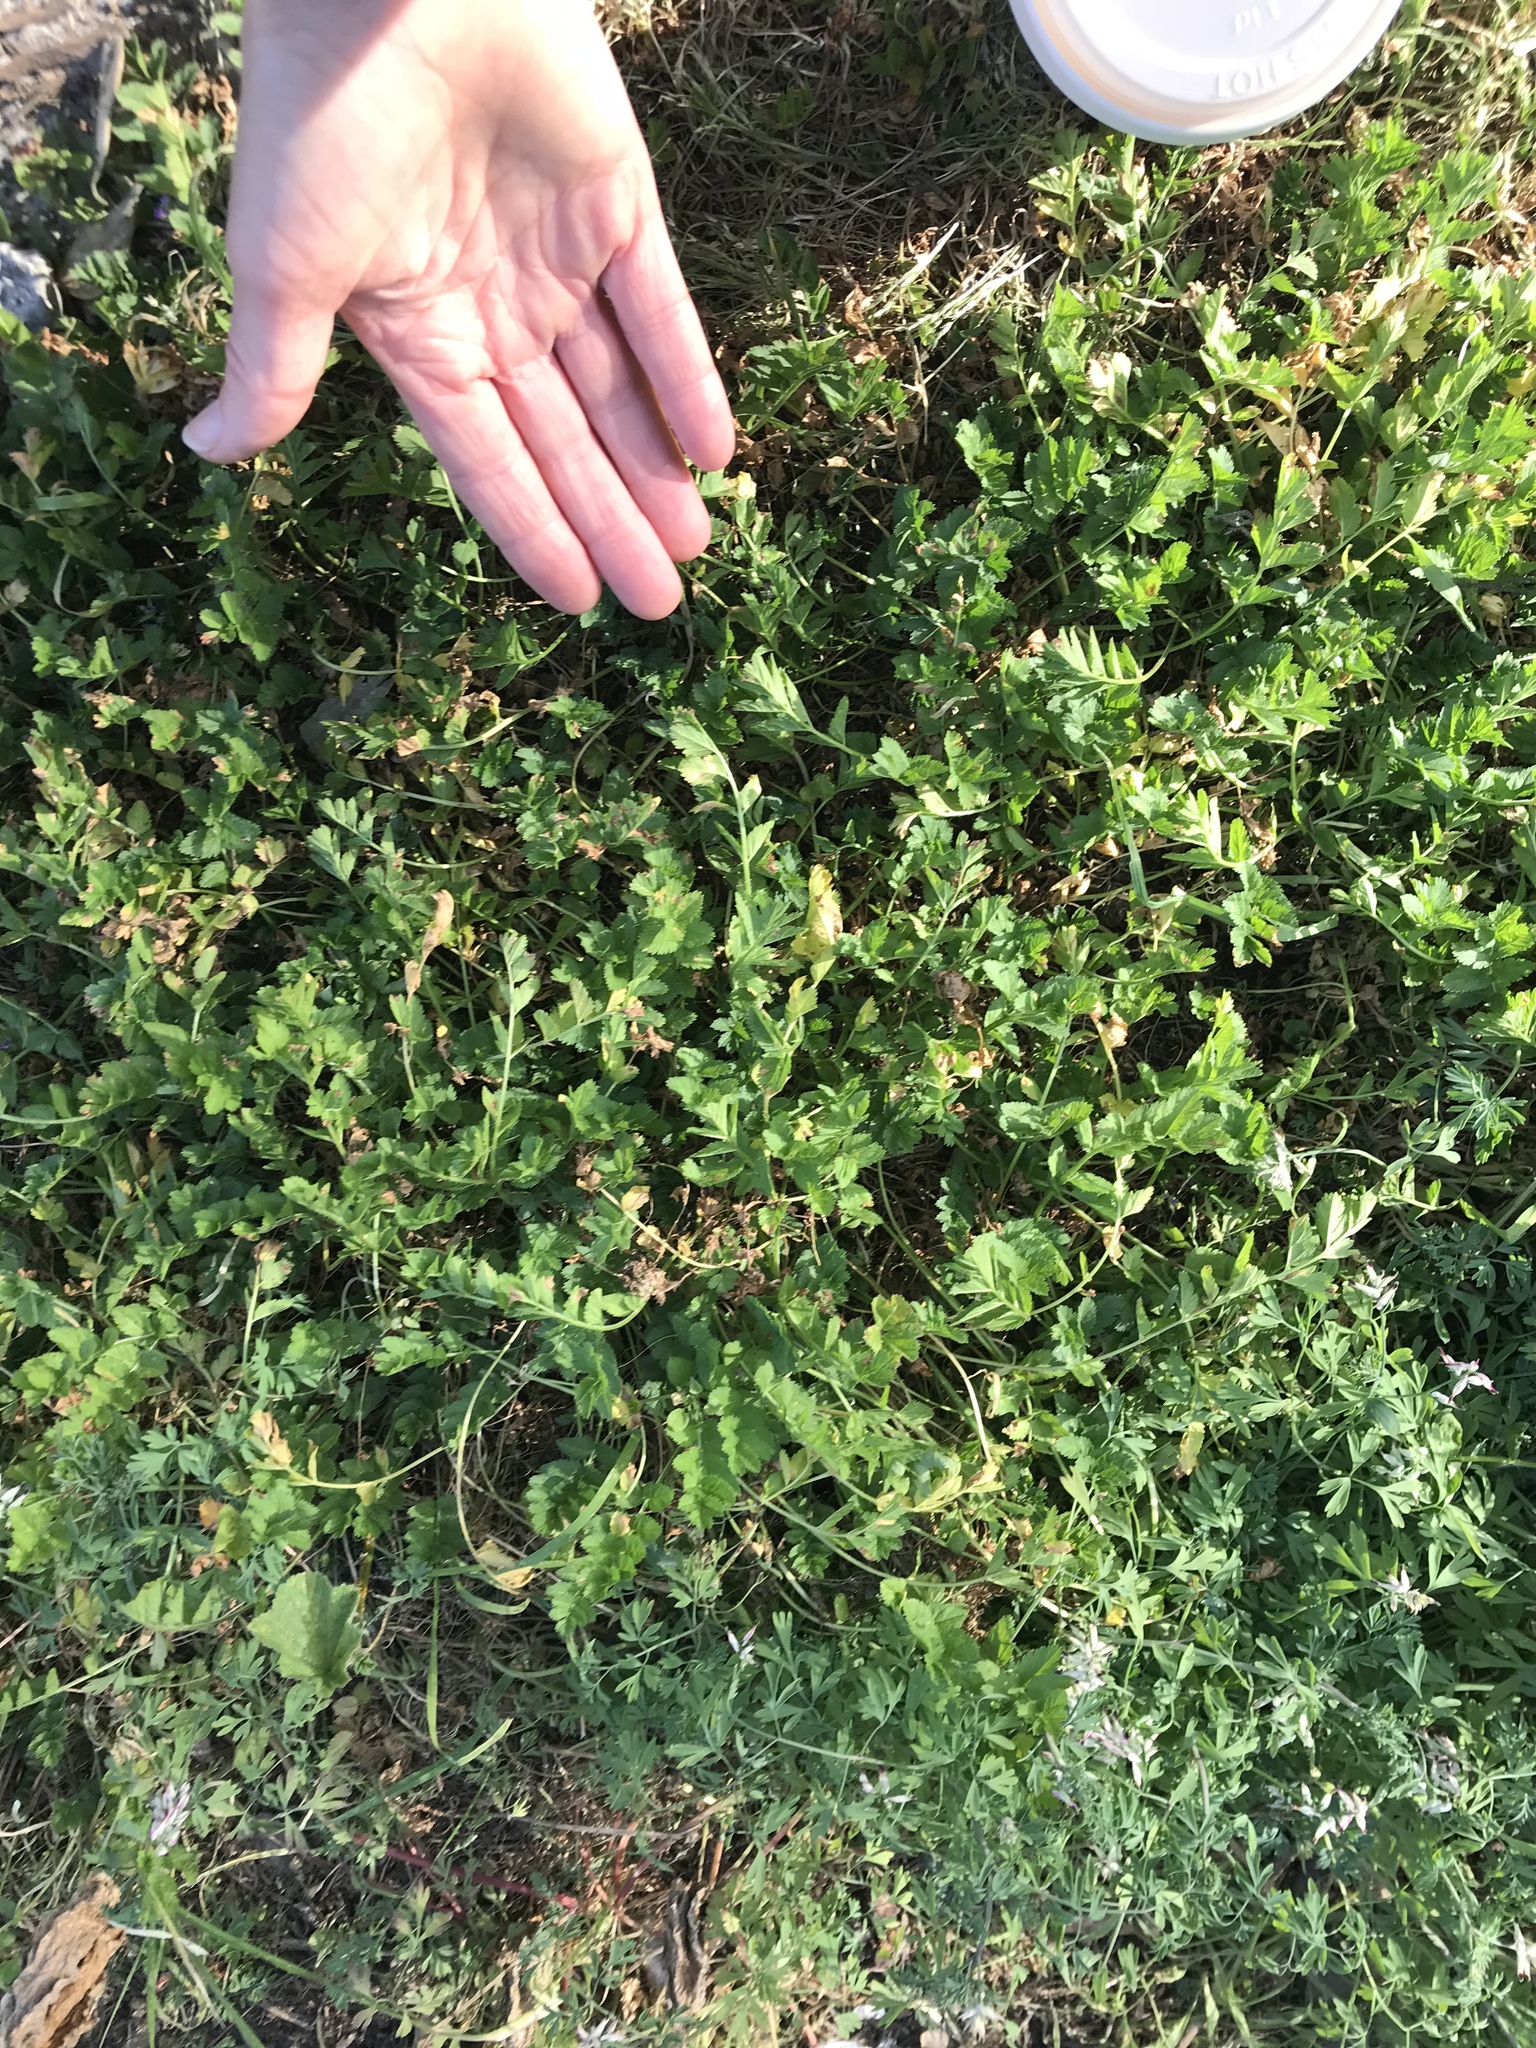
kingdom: Plantae
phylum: Tracheophyta
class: Magnoliopsida
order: Geraniales
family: Geraniaceae
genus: Erodium
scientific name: Erodium moschatum
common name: Musk stork's-bill
